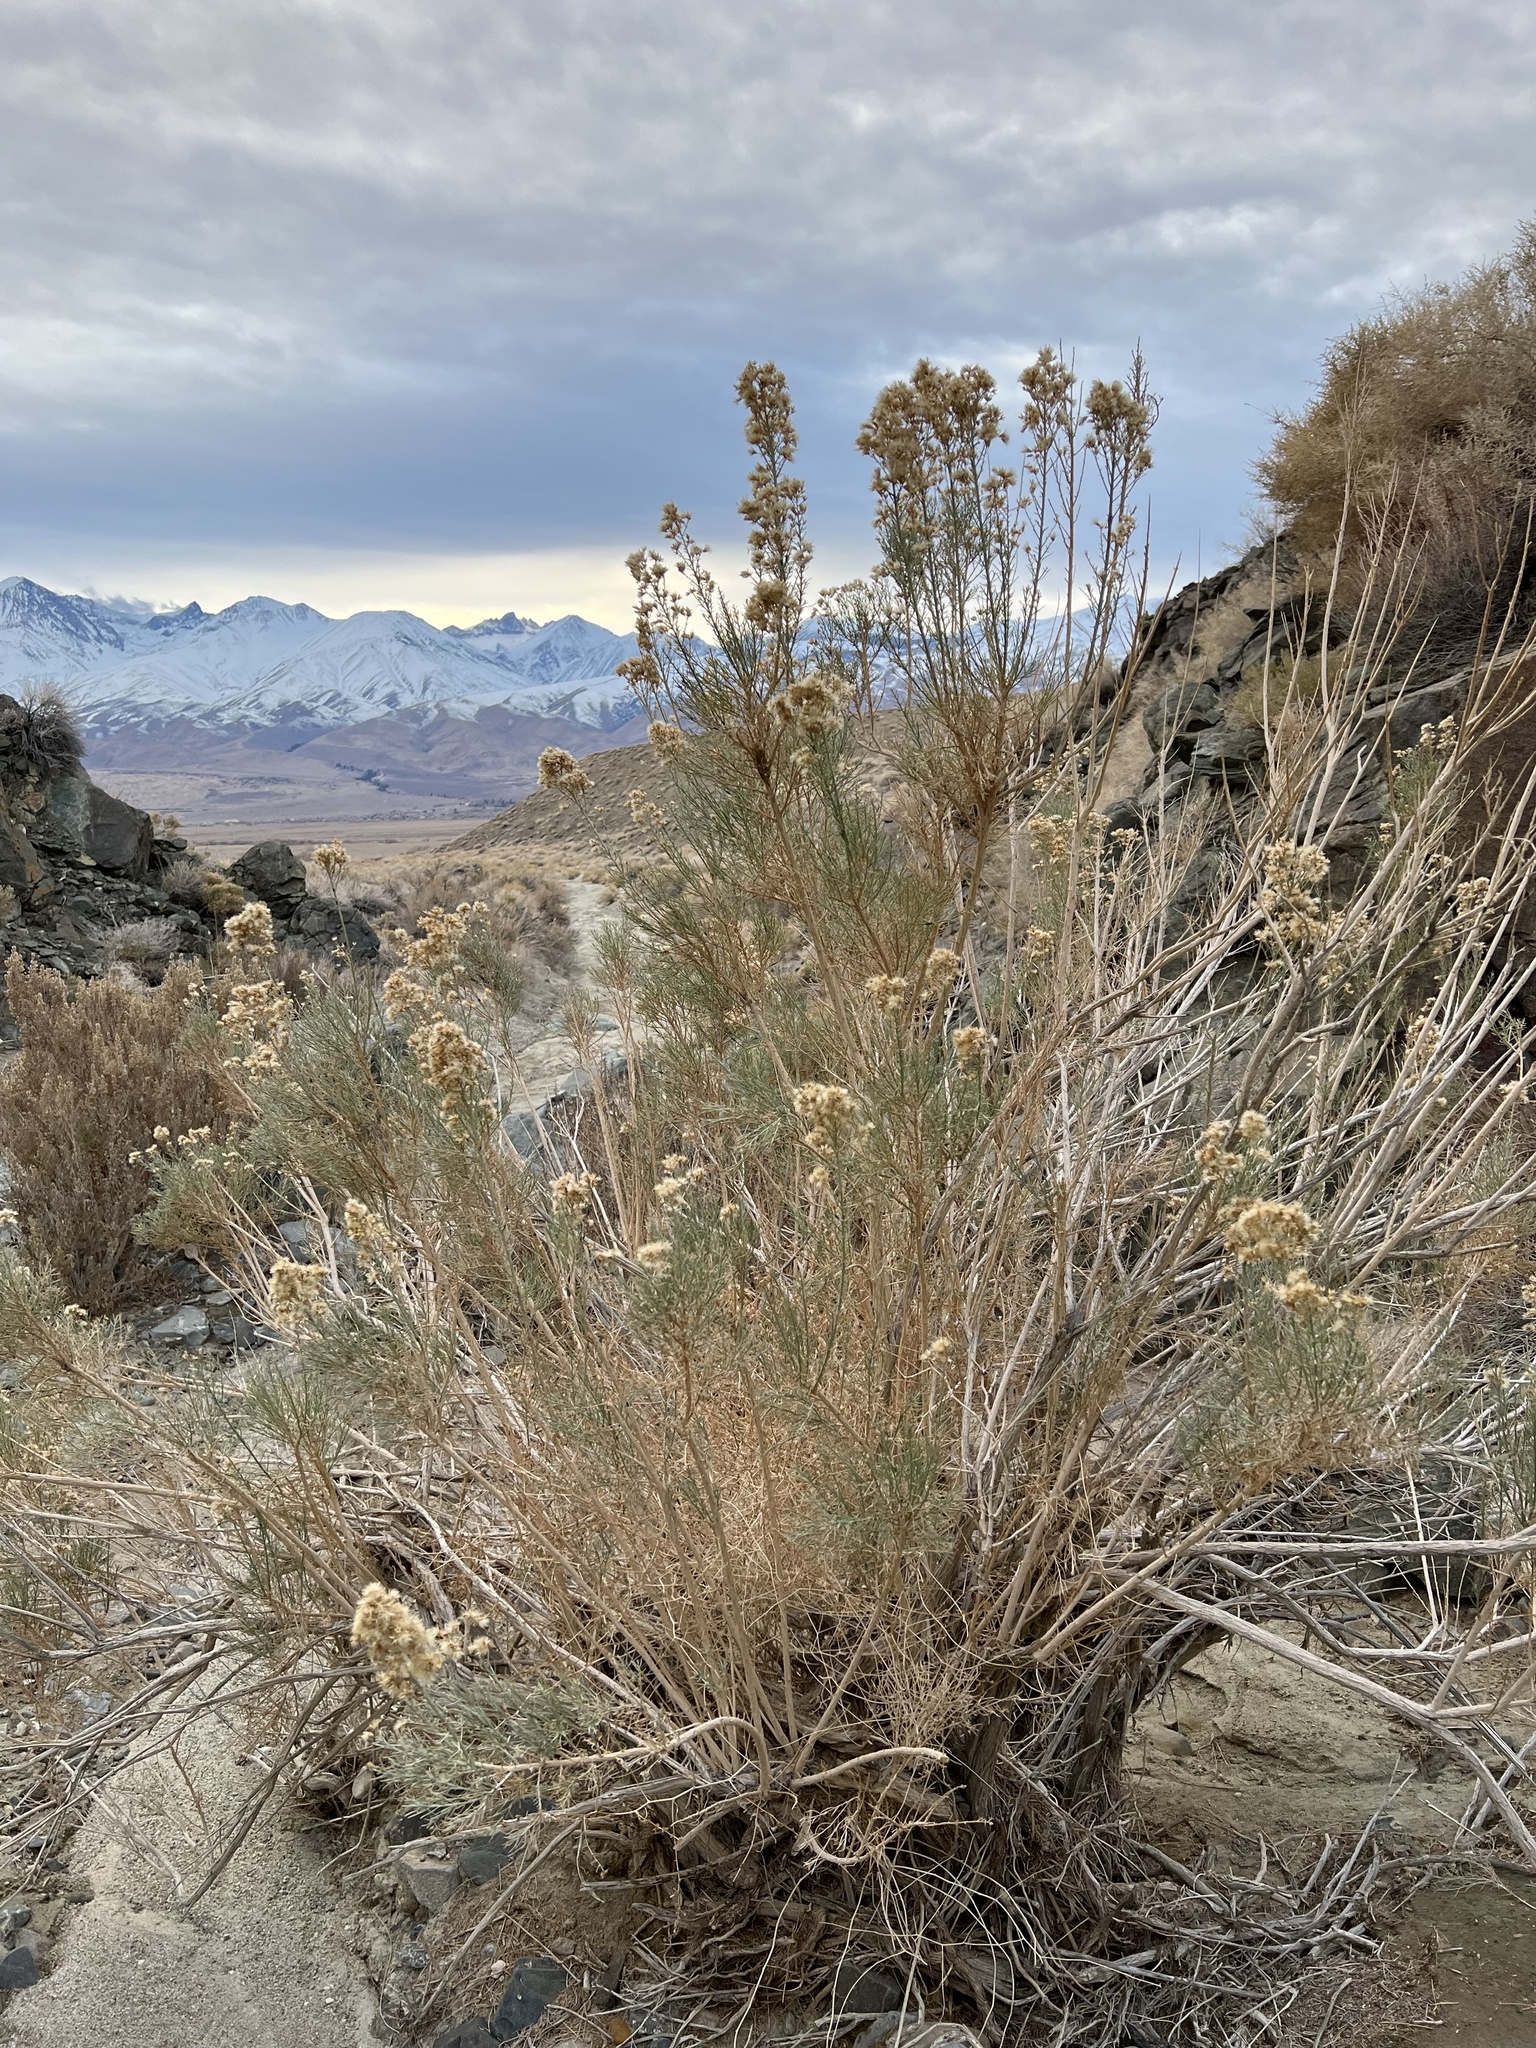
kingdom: Plantae
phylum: Tracheophyta
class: Magnoliopsida
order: Asterales
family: Asteraceae
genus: Ericameria
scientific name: Ericameria paniculata
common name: Punctate rabbitbrush
